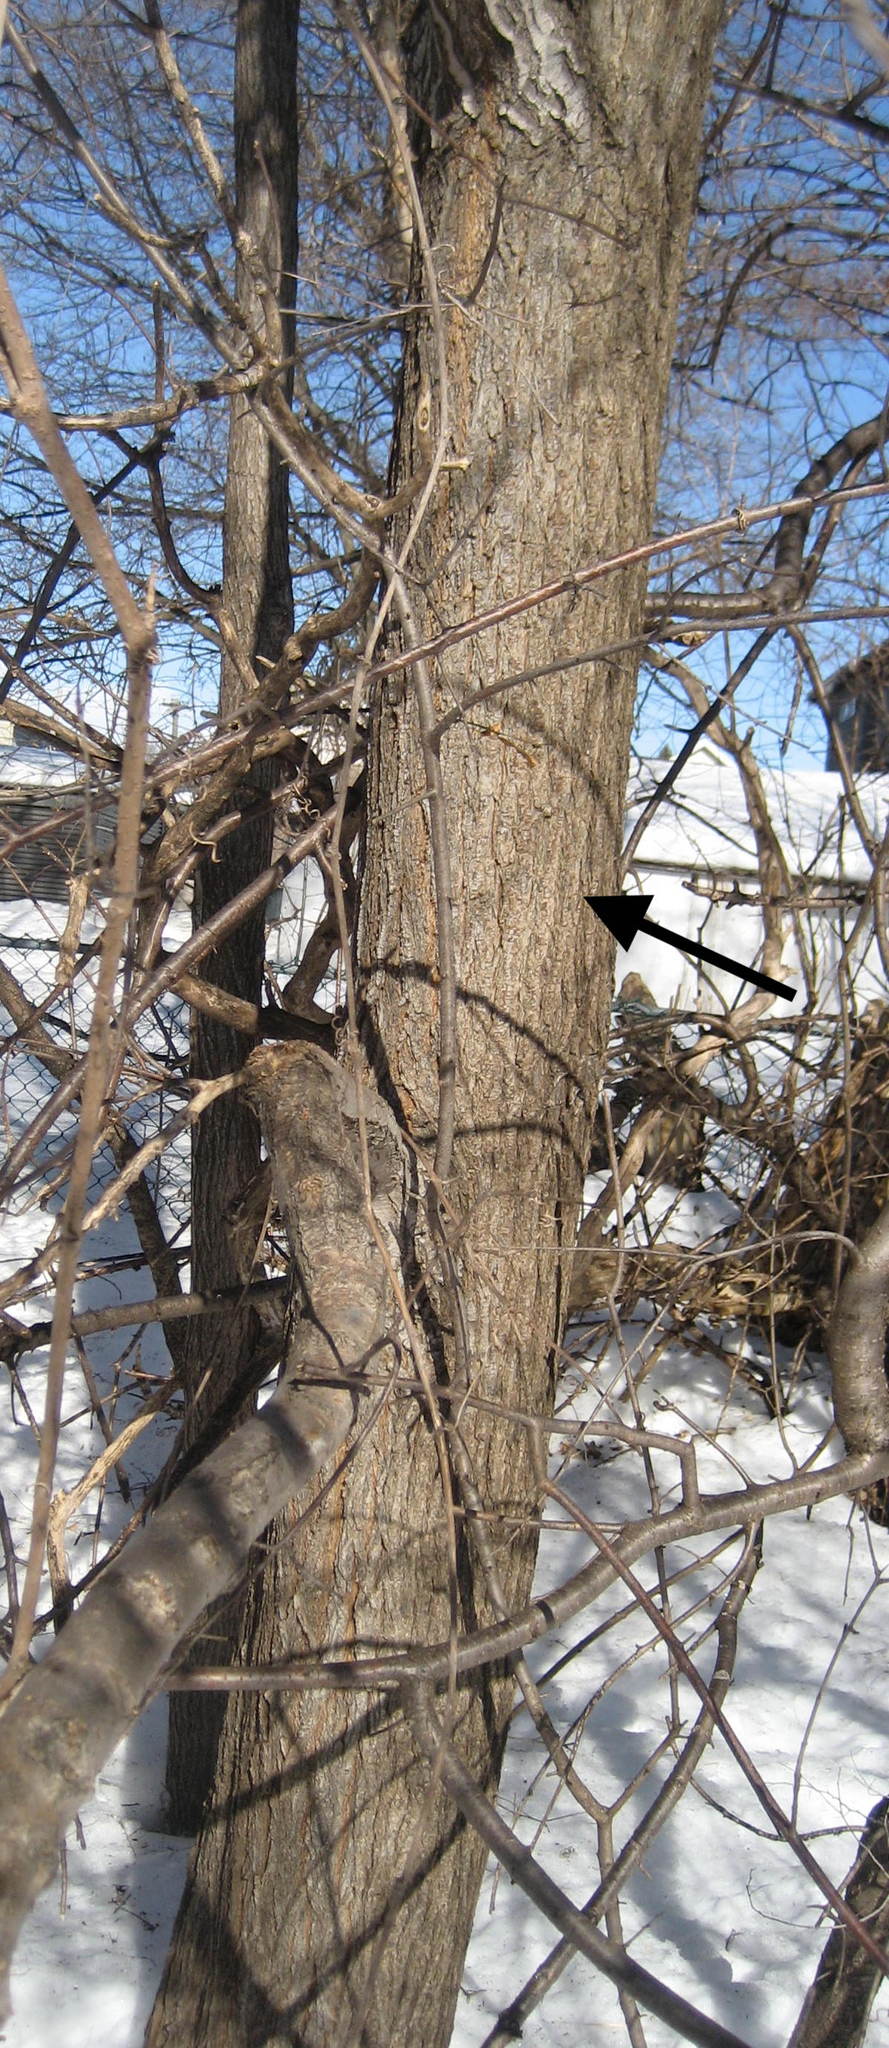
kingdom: Plantae
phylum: Tracheophyta
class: Magnoliopsida
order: Rosales
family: Ulmaceae
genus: Ulmus
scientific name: Ulmus pumila
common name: Siberian elm
